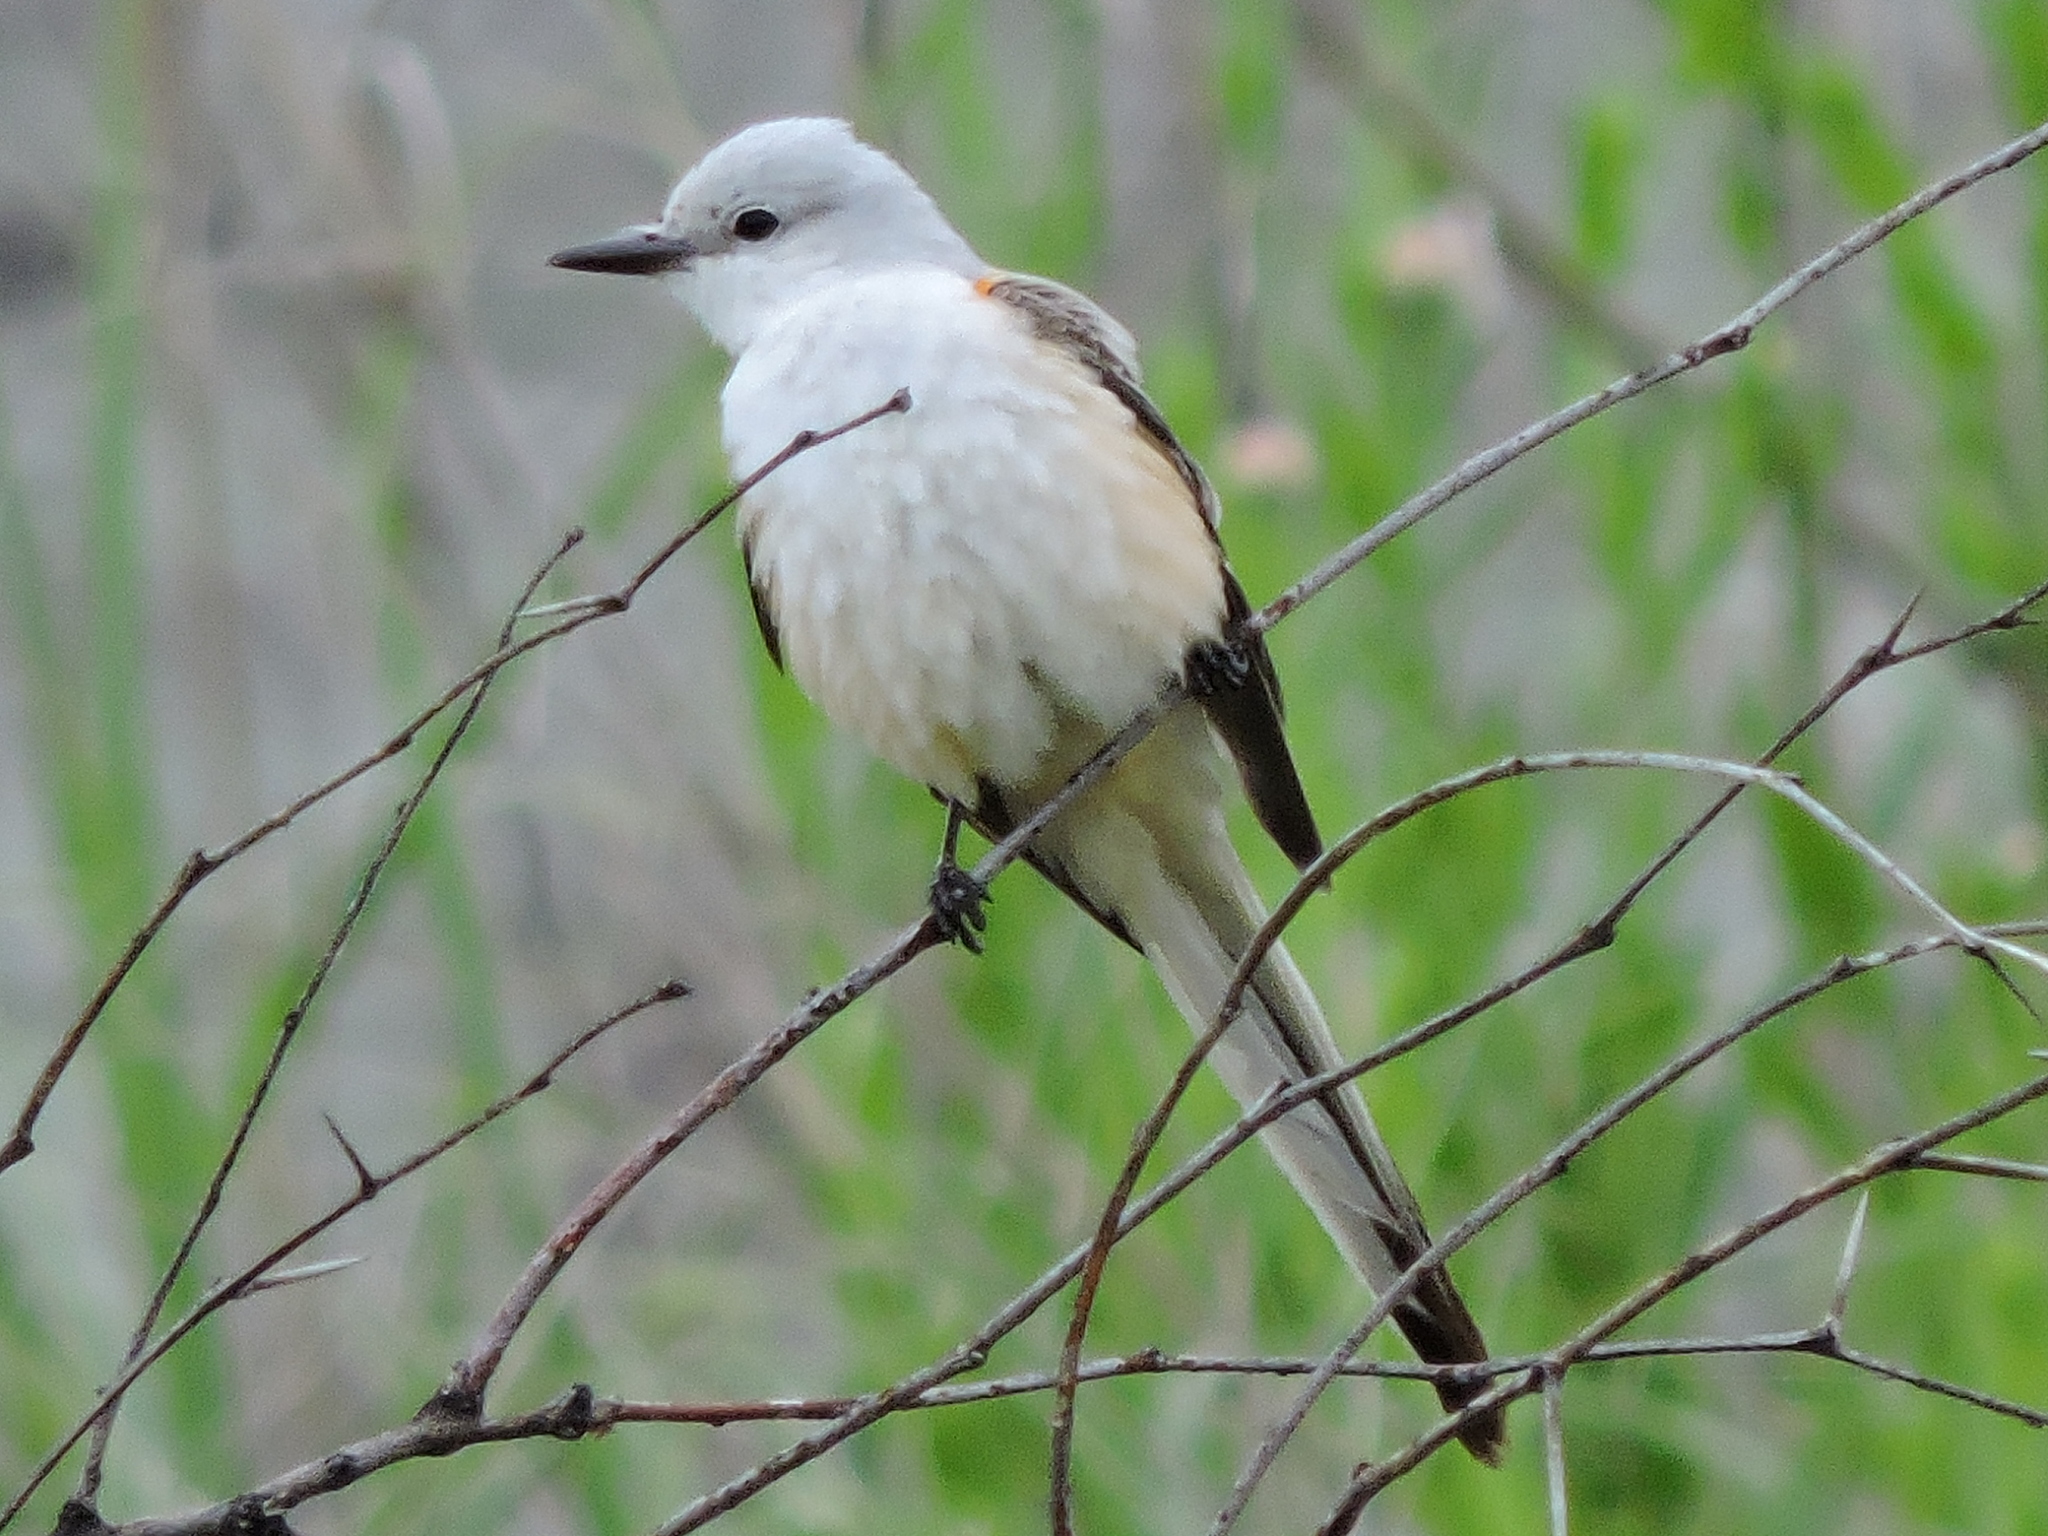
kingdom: Animalia
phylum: Chordata
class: Aves
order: Passeriformes
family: Tyrannidae
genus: Tyrannus
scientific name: Tyrannus forficatus
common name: Scissor-tailed flycatcher
